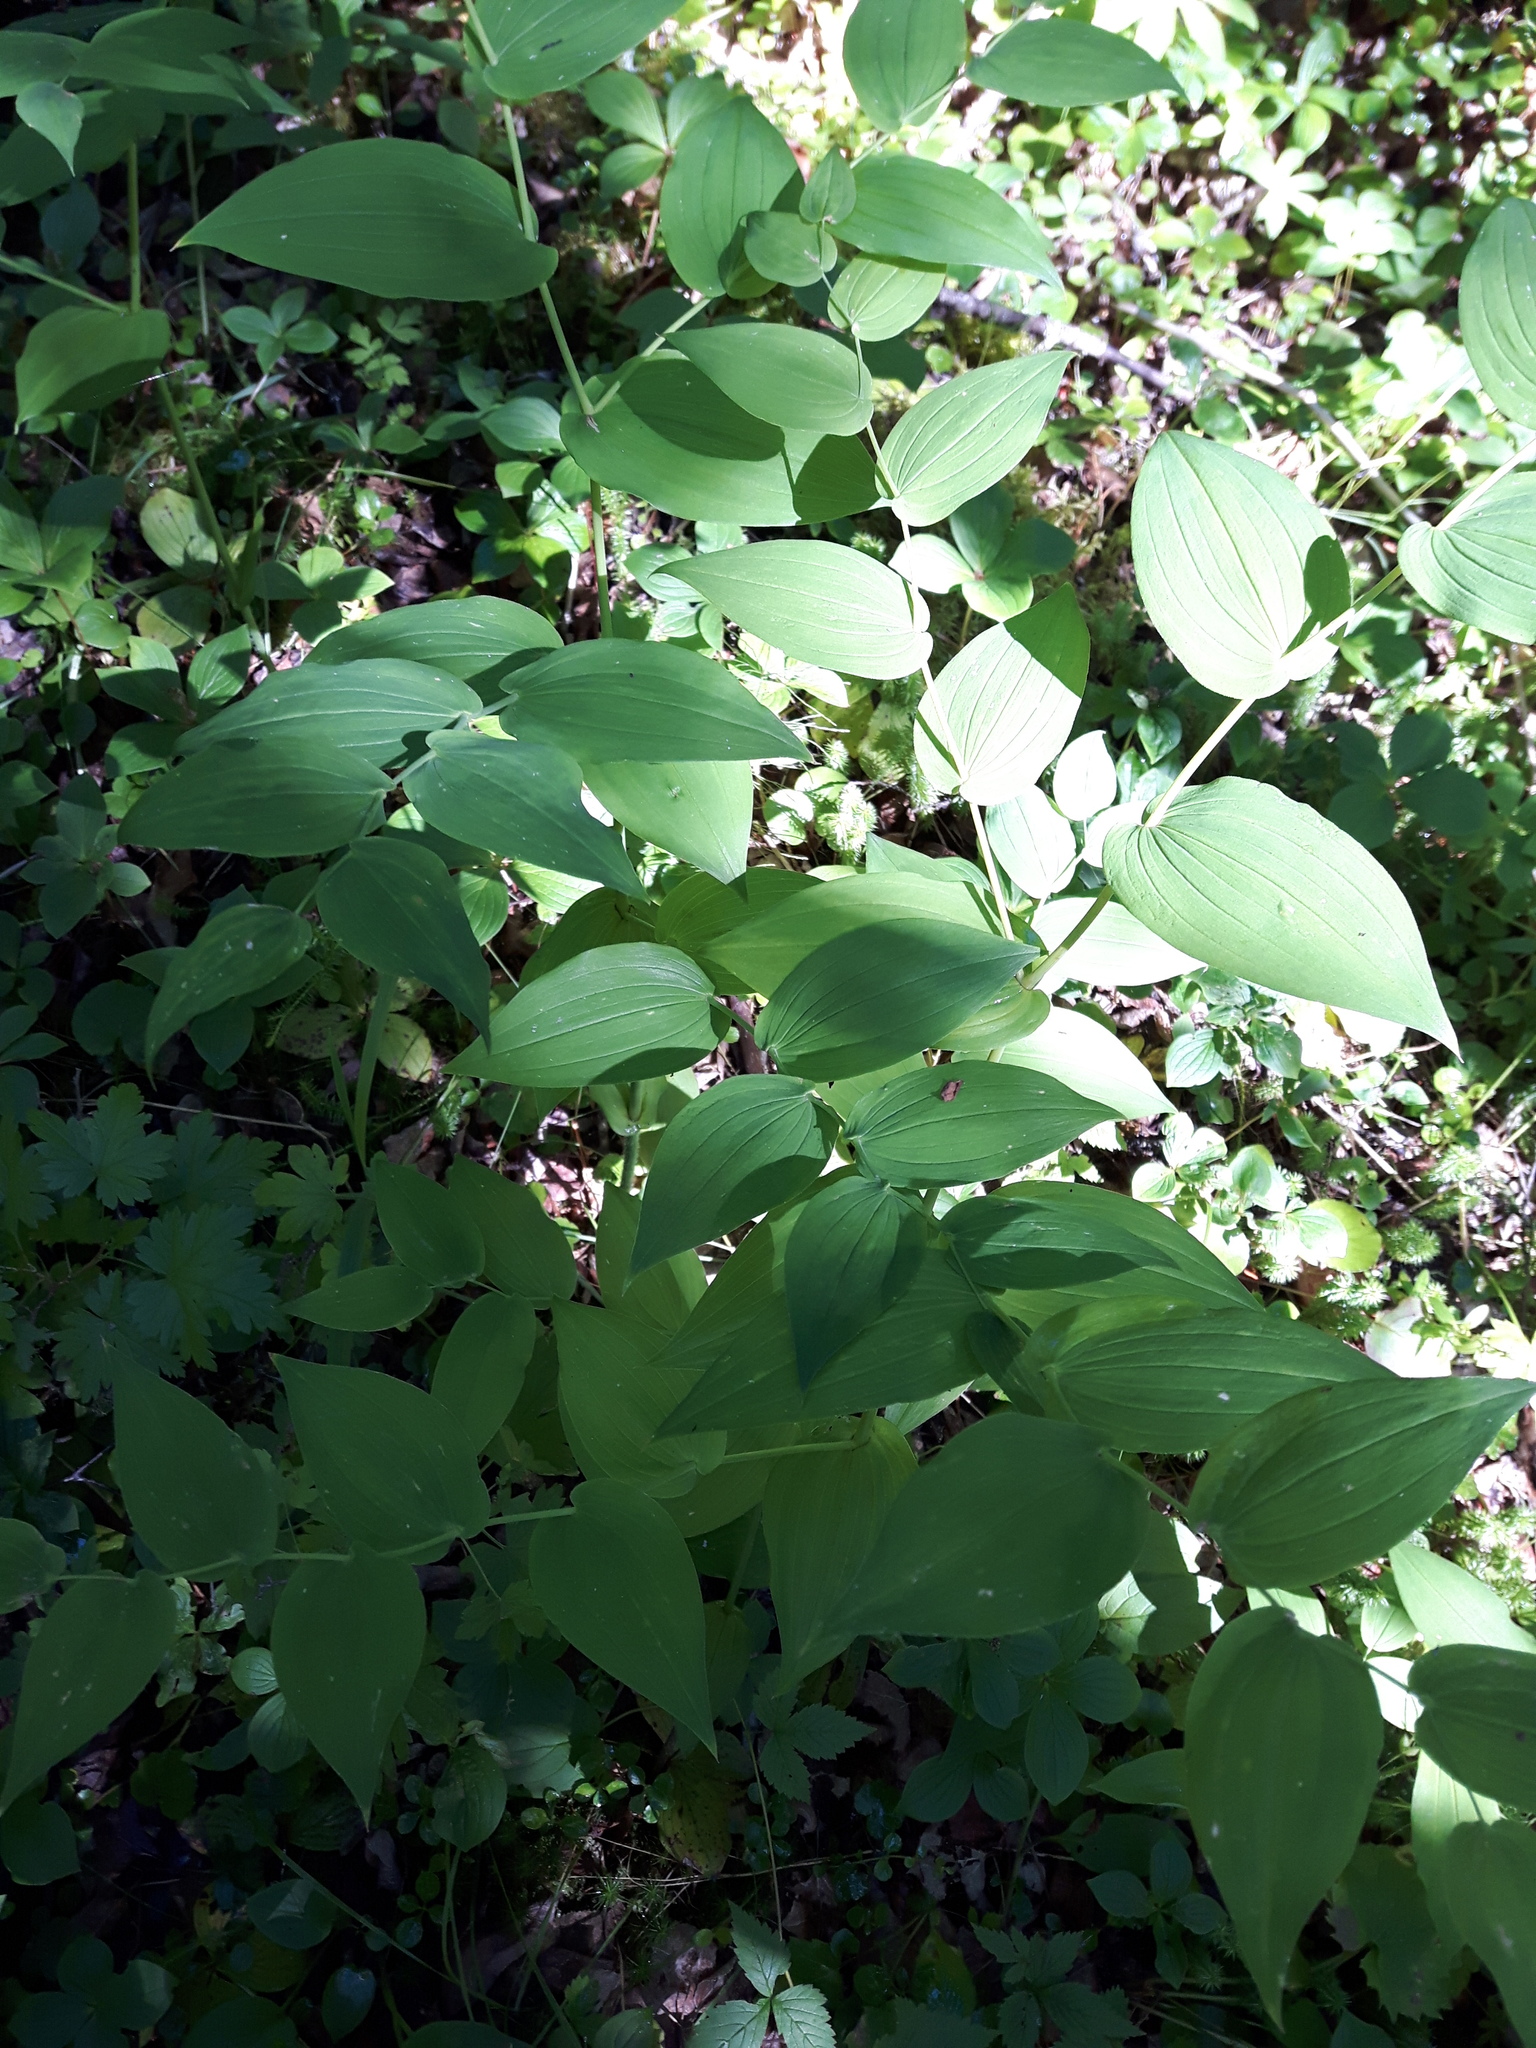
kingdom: Plantae
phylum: Tracheophyta
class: Liliopsida
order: Liliales
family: Liliaceae
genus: Streptopus
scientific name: Streptopus amplexifolius
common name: Clasp twisted stalk
